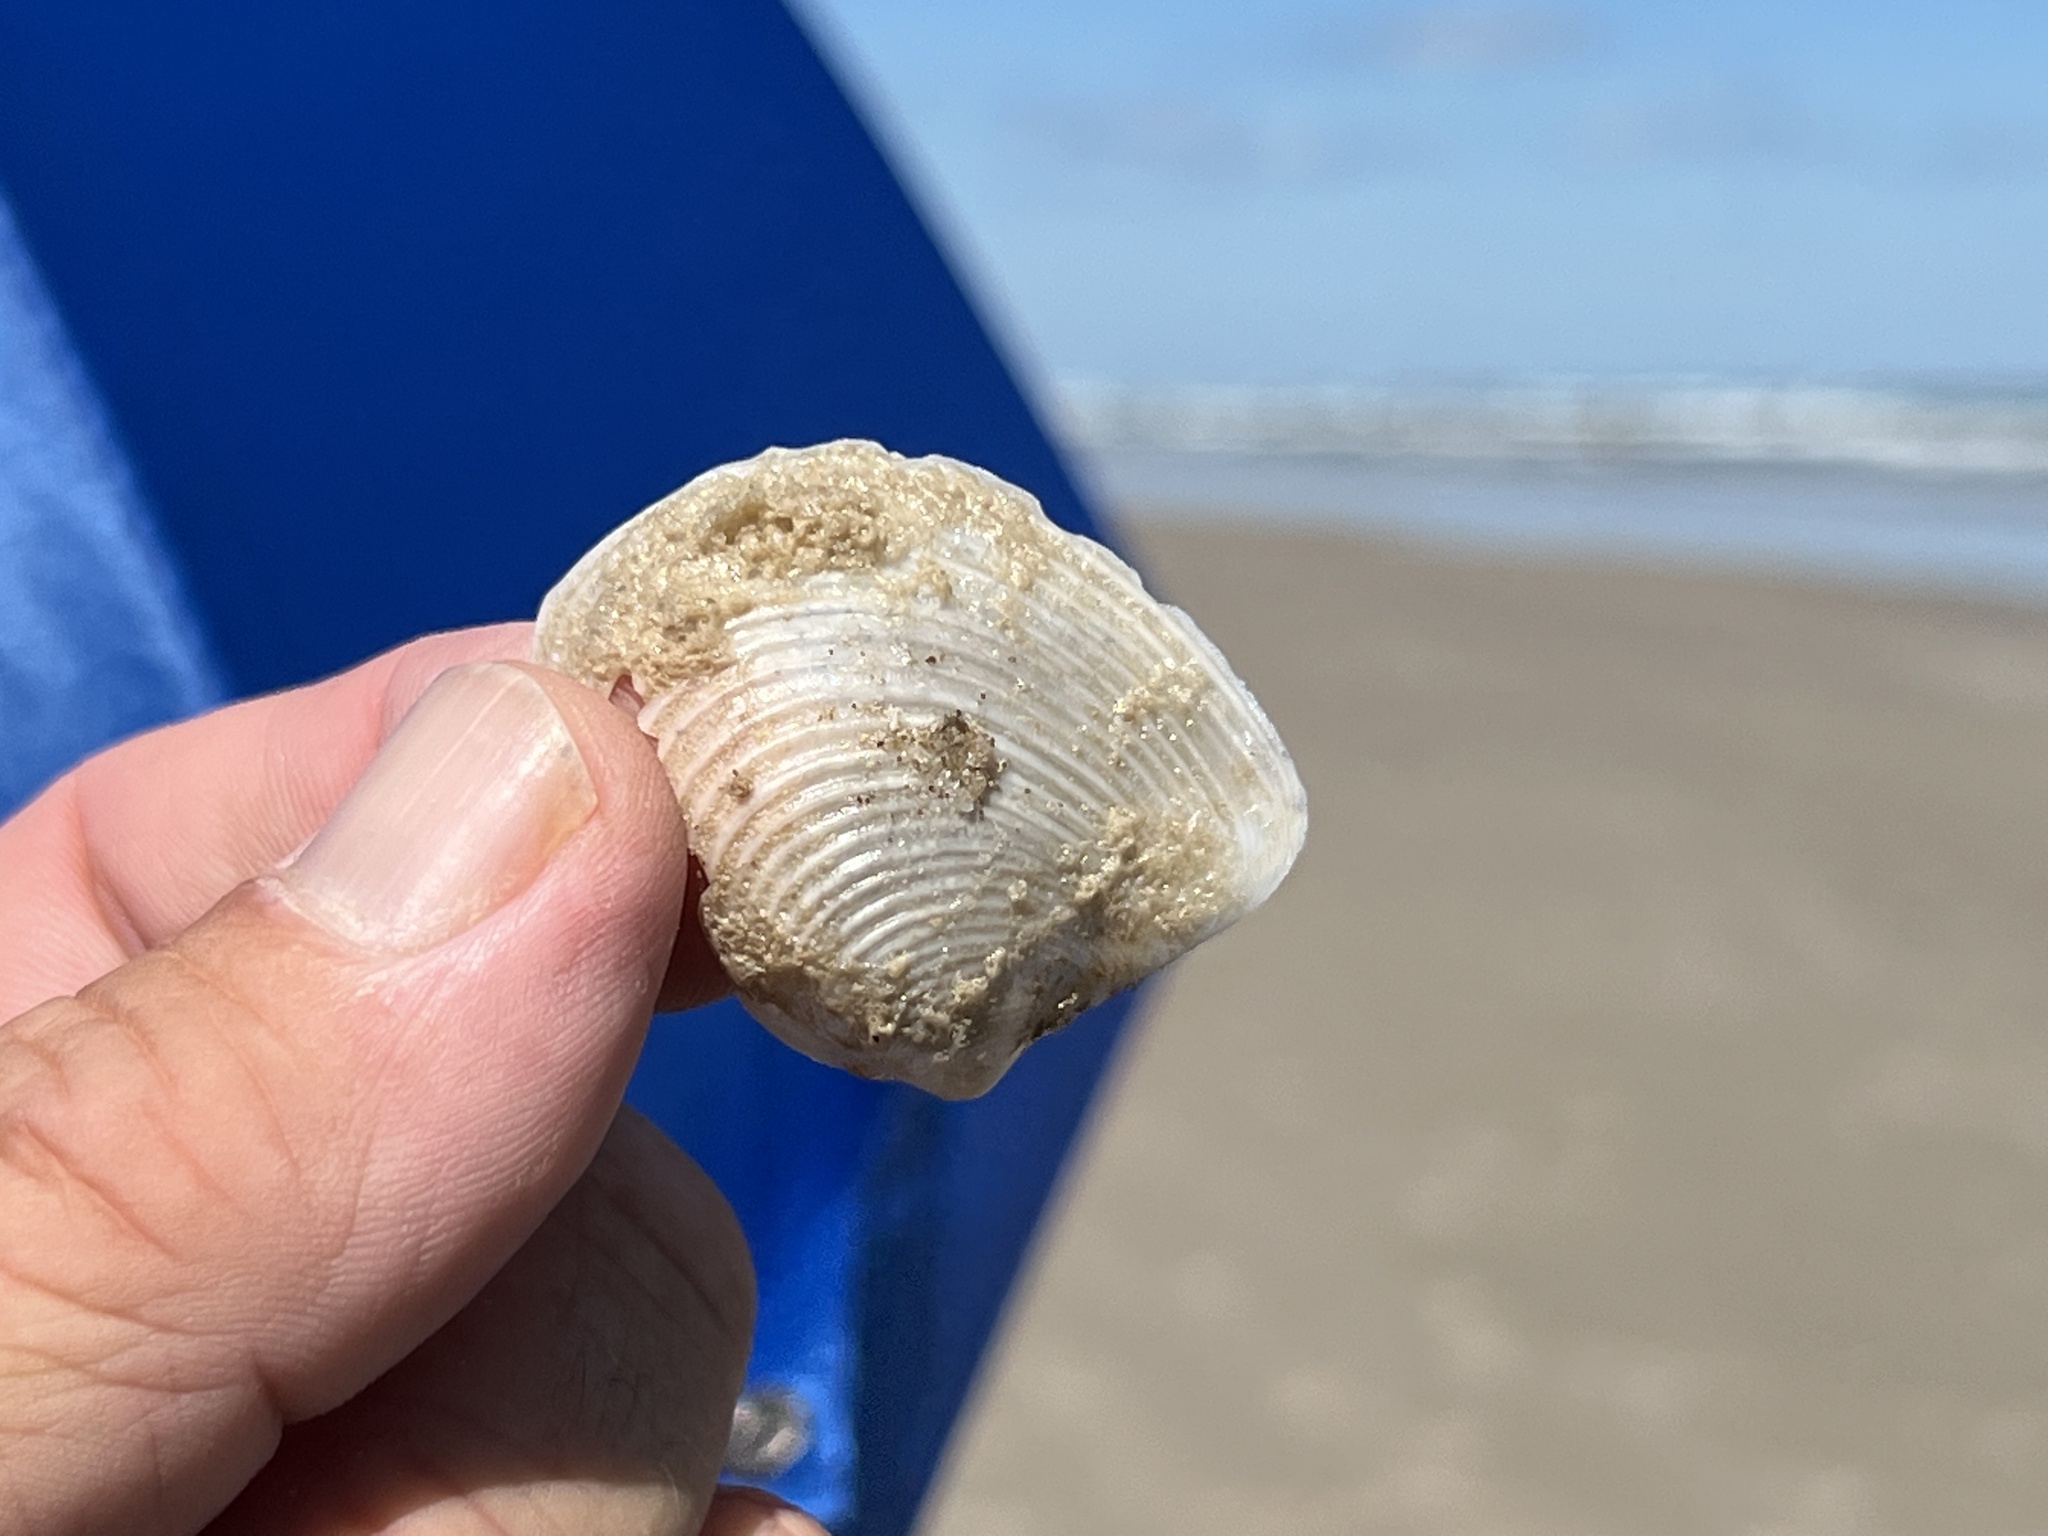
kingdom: Animalia
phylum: Mollusca
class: Bivalvia
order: Venerida
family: Anatinellidae
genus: Raeta
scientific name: Raeta plicatella
